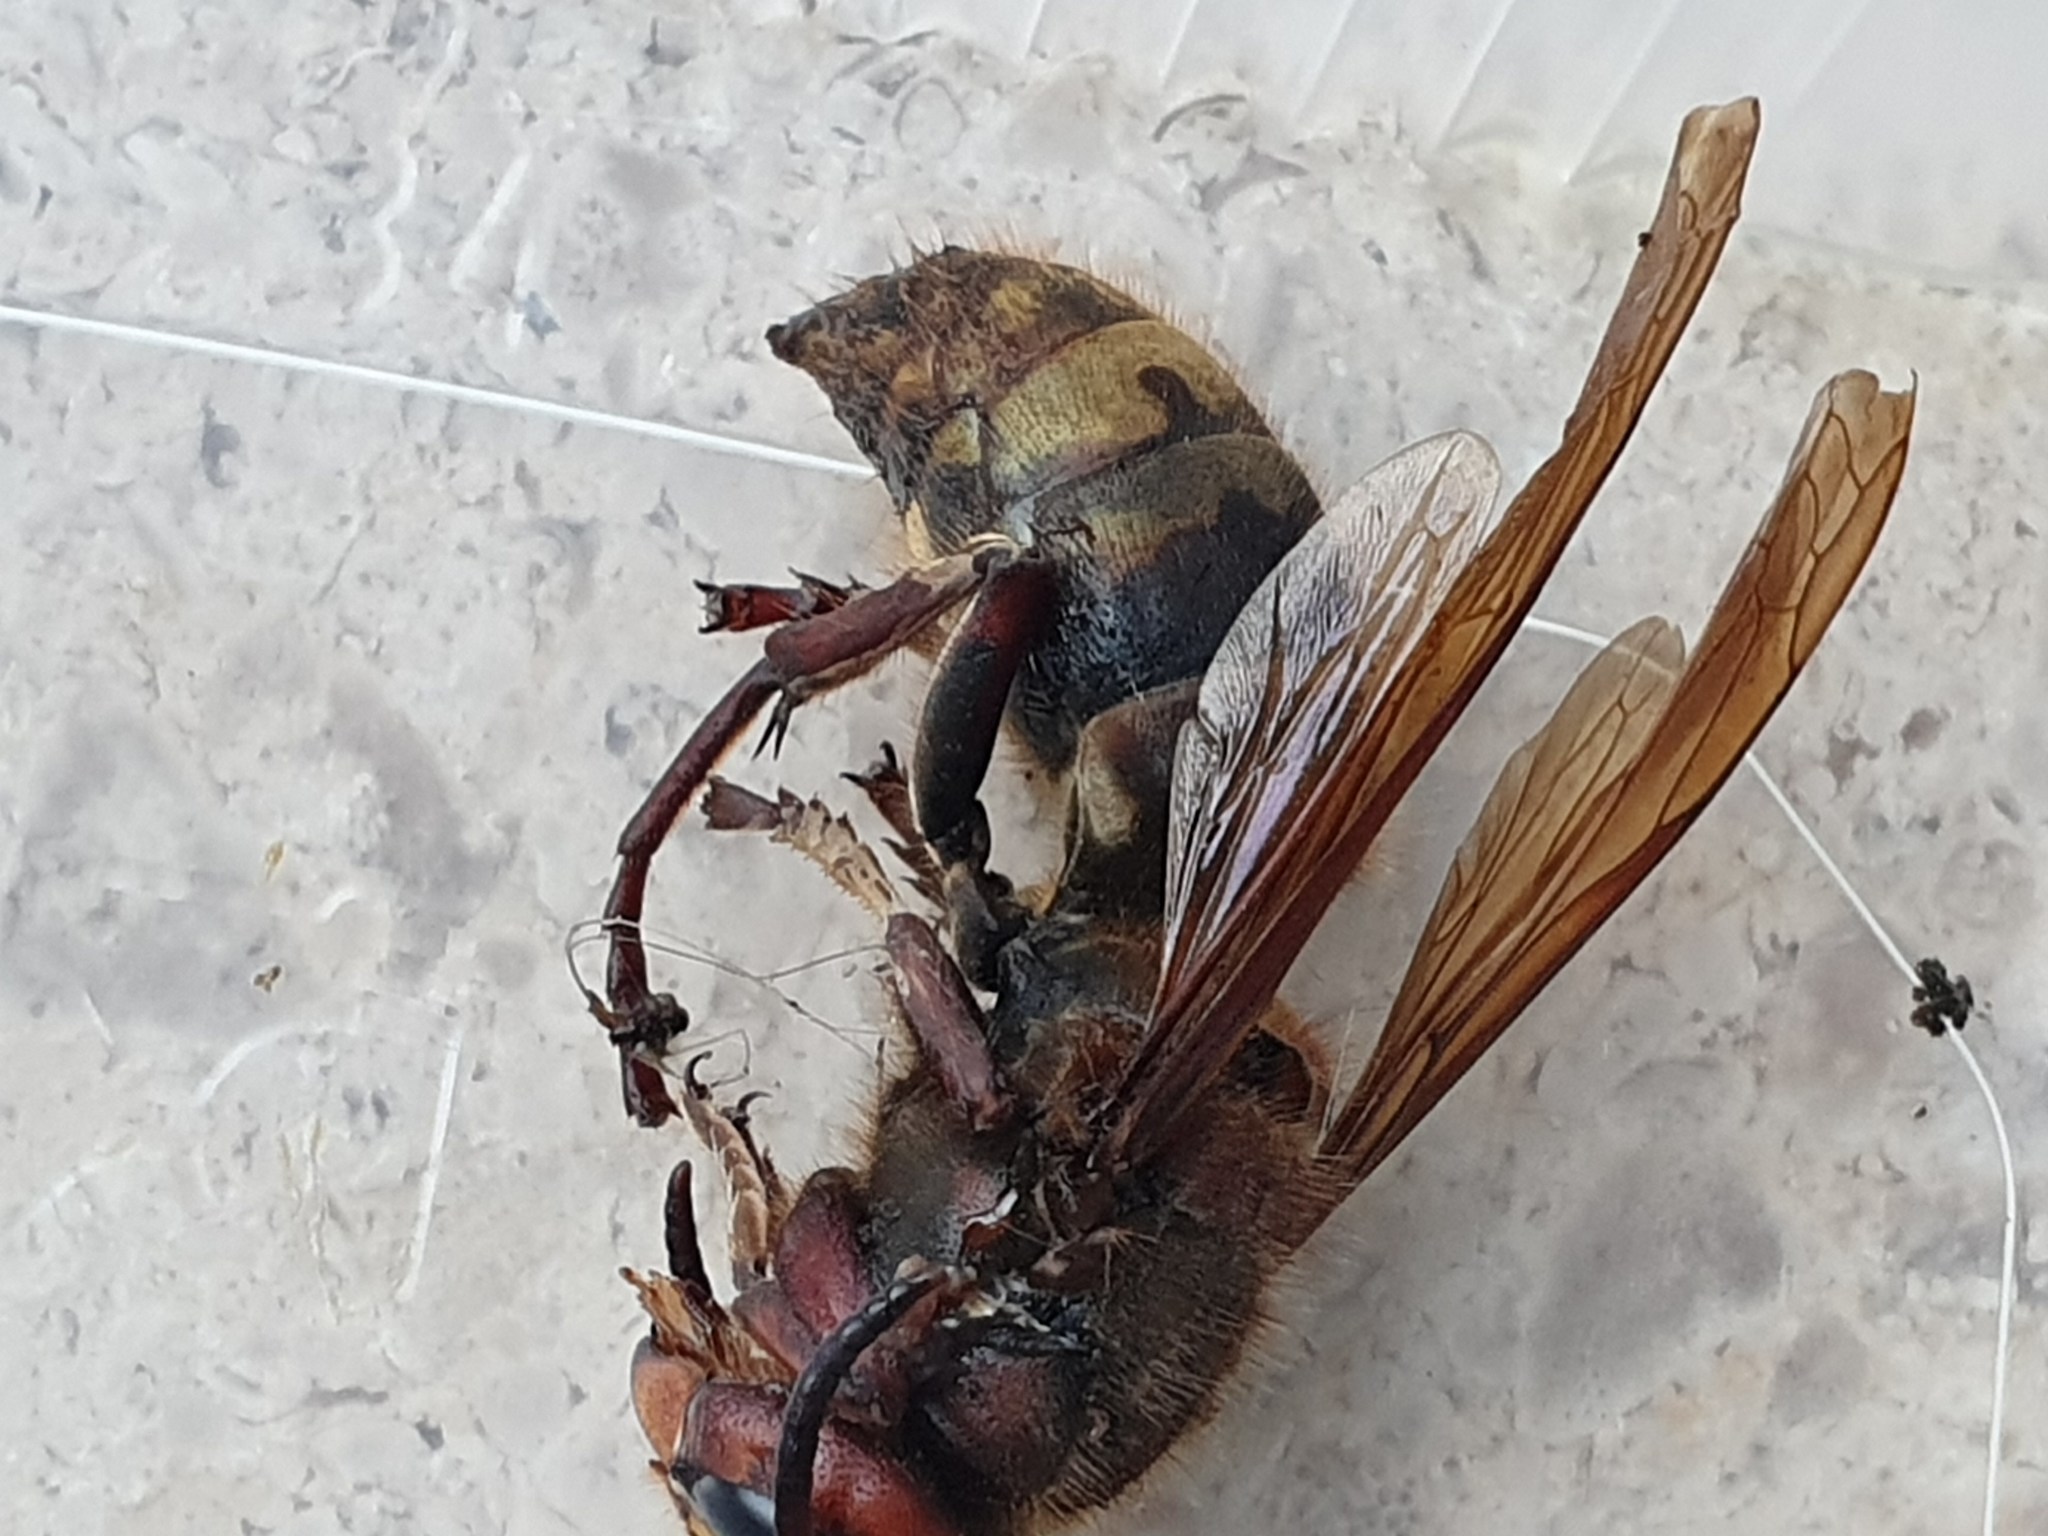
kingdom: Animalia
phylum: Arthropoda
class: Insecta
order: Hymenoptera
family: Vespidae
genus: Vespa
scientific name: Vespa crabro
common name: Hornet
